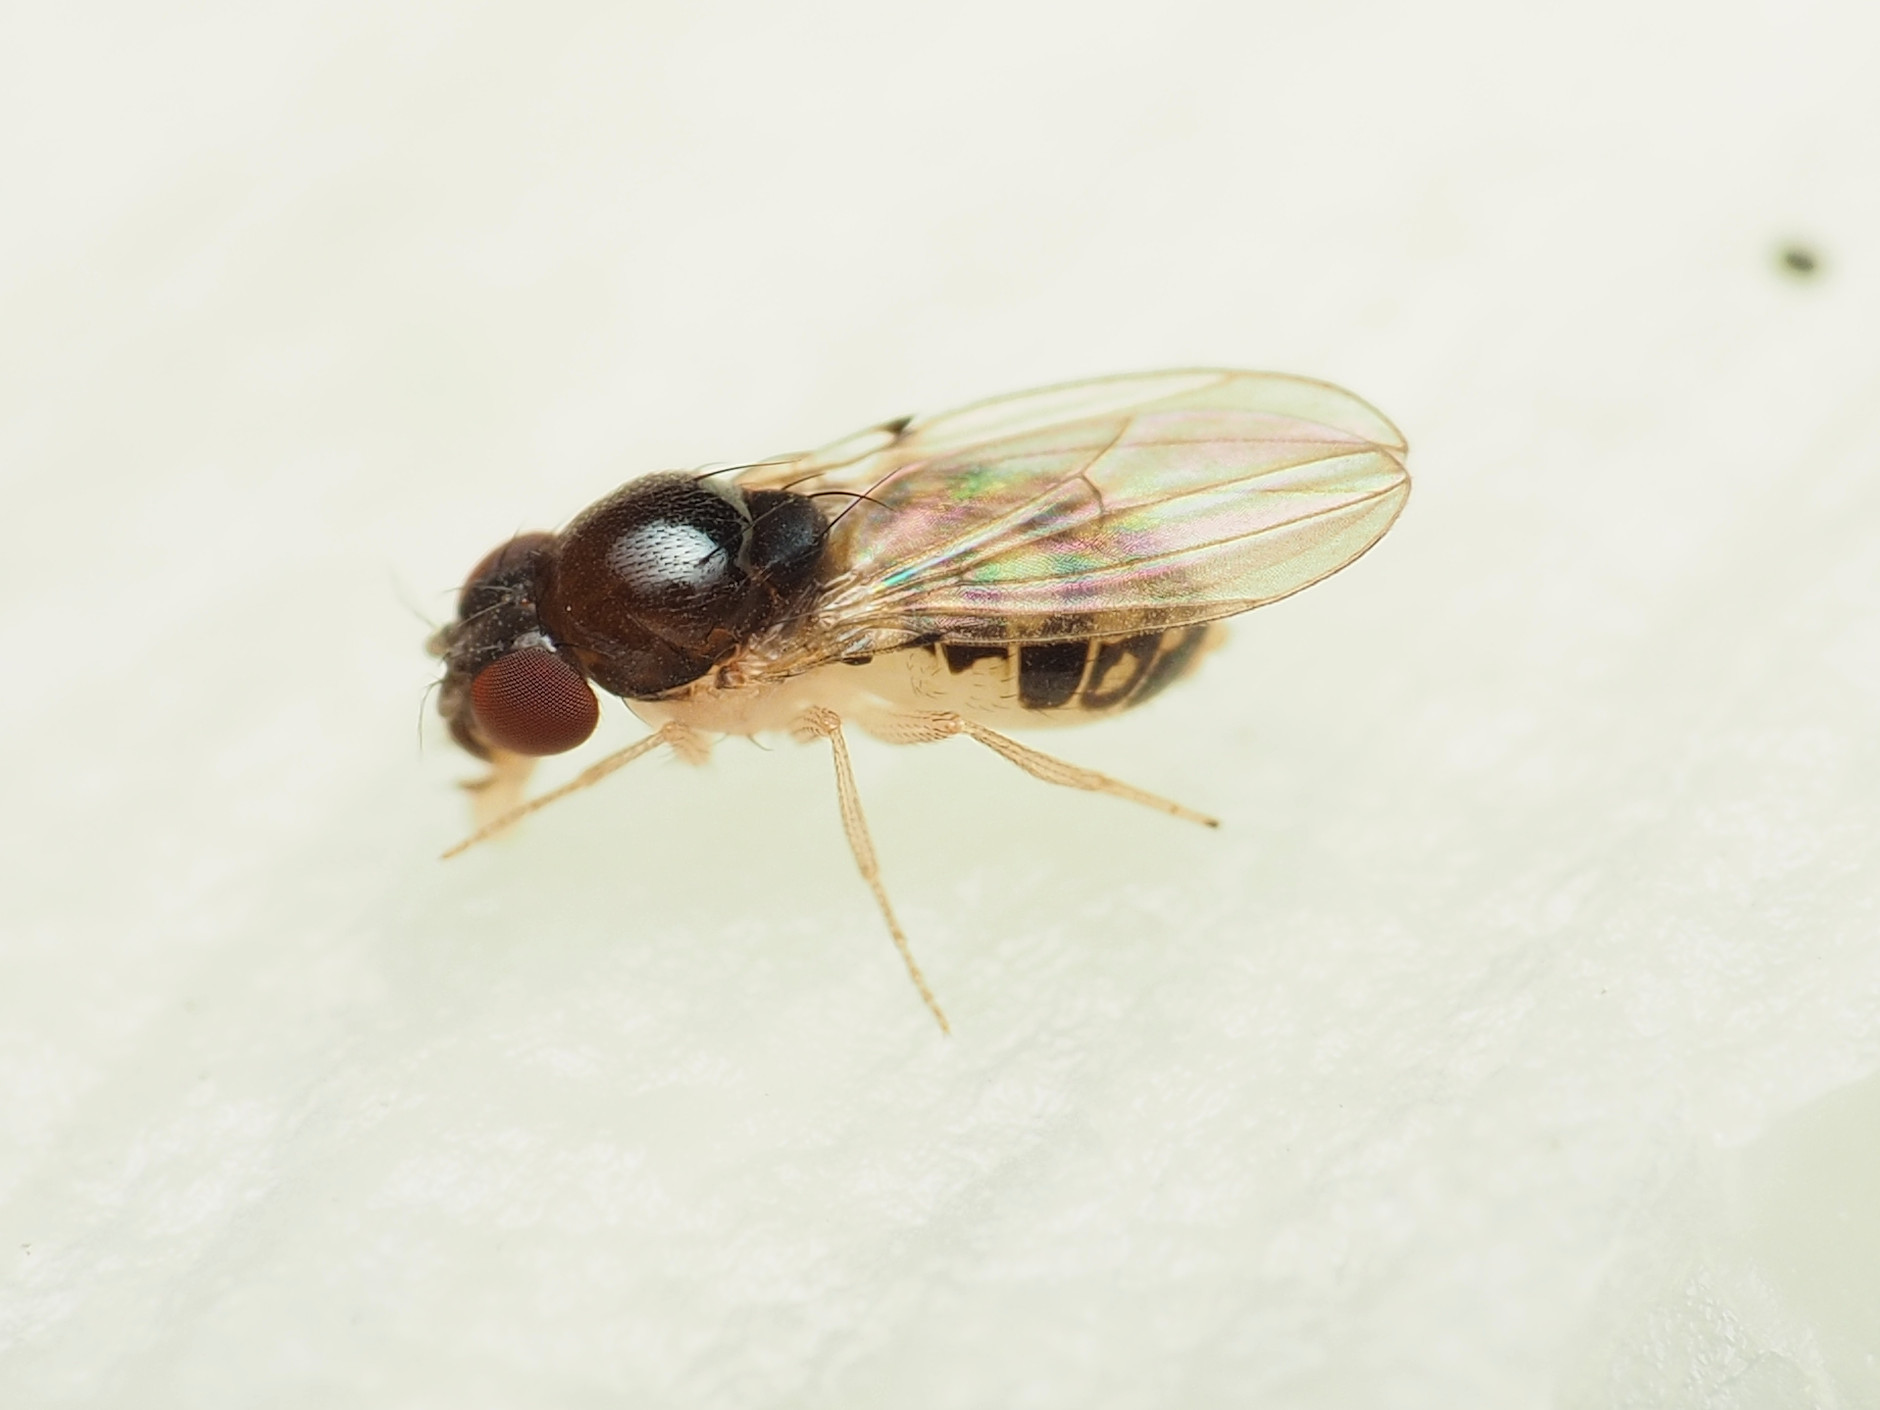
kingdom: Animalia
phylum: Arthropoda
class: Insecta
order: Diptera
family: Drosophilidae
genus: Mycodrosophila
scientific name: Mycodrosophila claytonae
